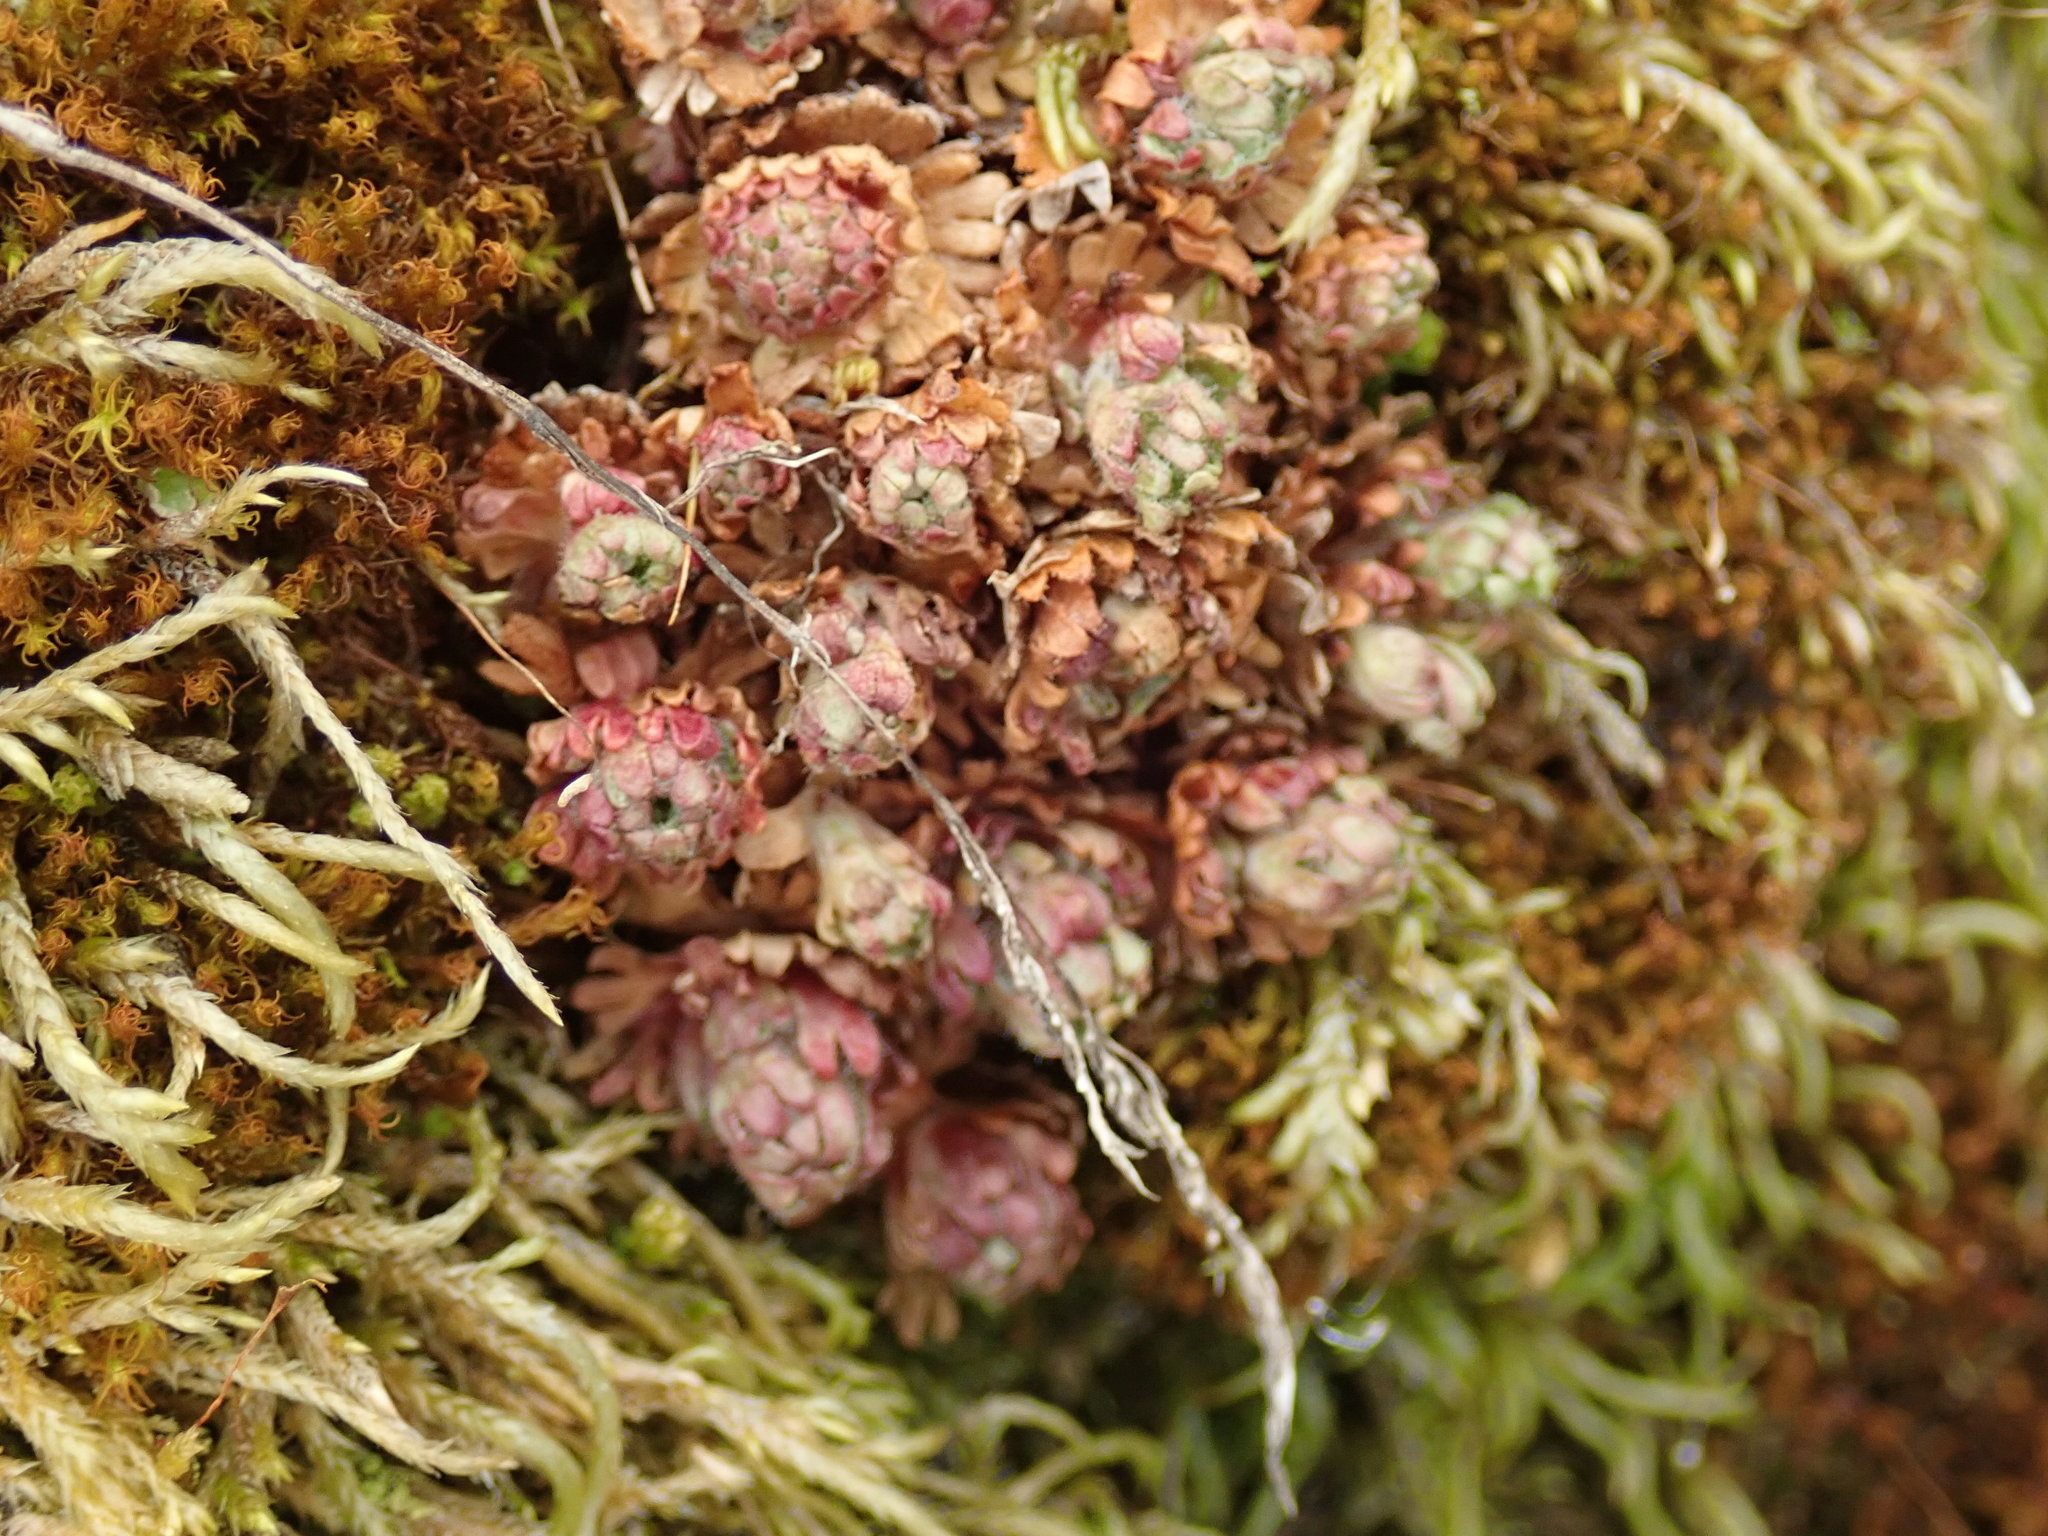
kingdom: Plantae
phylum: Tracheophyta
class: Magnoliopsida
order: Saxifragales
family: Saxifragaceae
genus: Saxifraga
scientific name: Saxifraga cespitosa
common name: Tufted saxifrage
